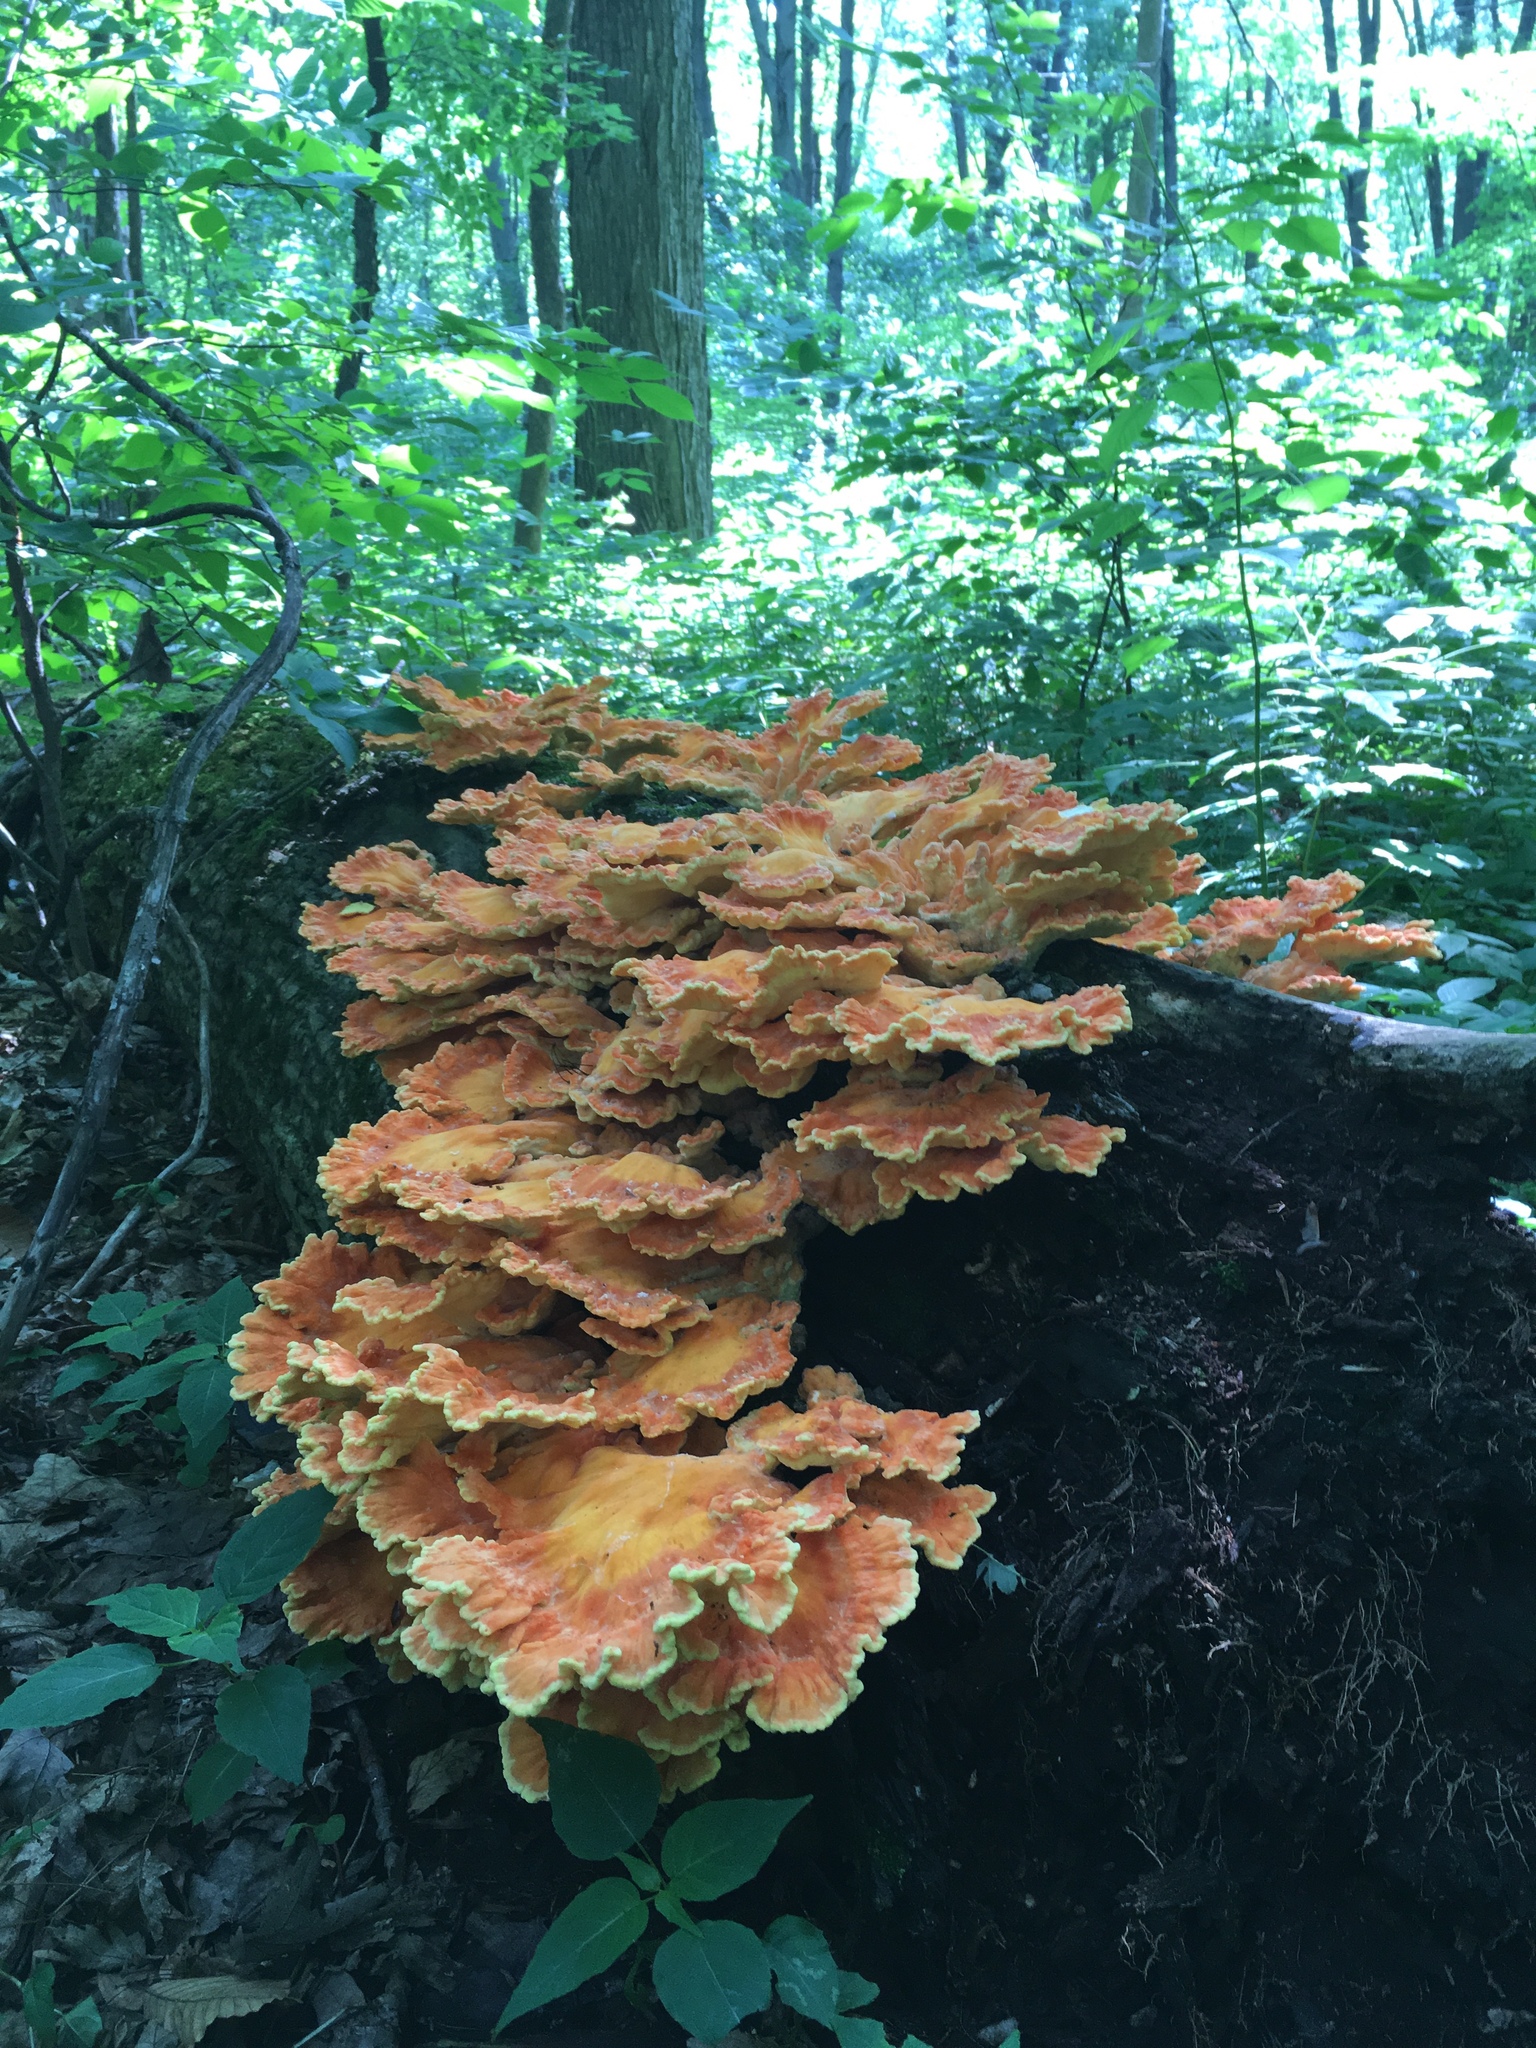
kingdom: Fungi
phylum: Basidiomycota
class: Agaricomycetes
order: Polyporales
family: Laetiporaceae
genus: Laetiporus
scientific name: Laetiporus sulphureus
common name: Chicken of the woods
